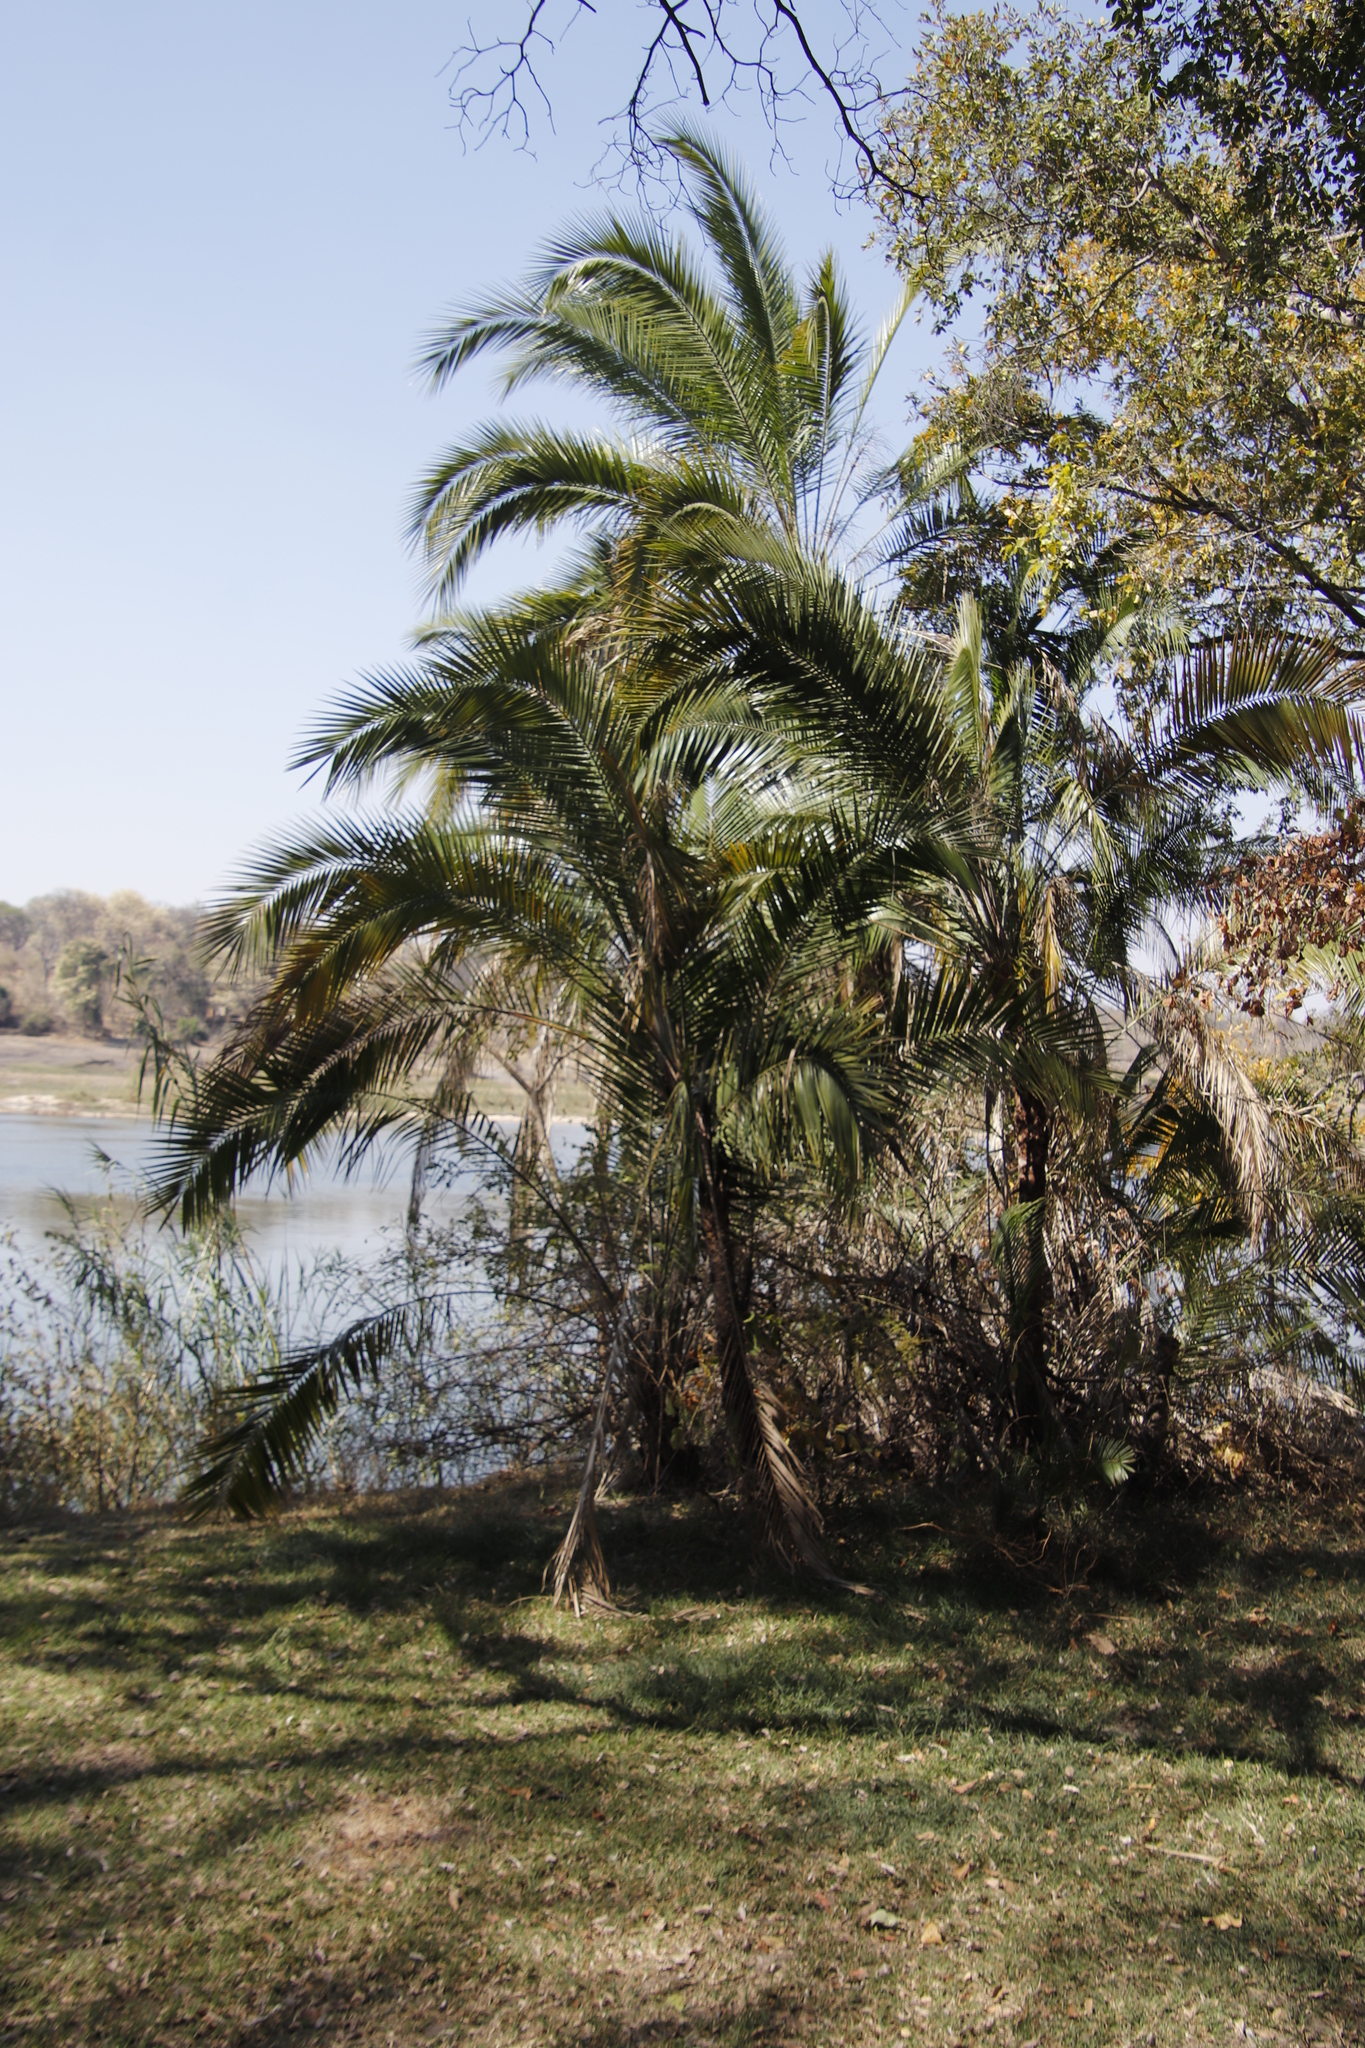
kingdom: Plantae
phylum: Tracheophyta
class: Liliopsida
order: Arecales
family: Arecaceae
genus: Phoenix
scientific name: Phoenix reclinata
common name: Senegal date palm
